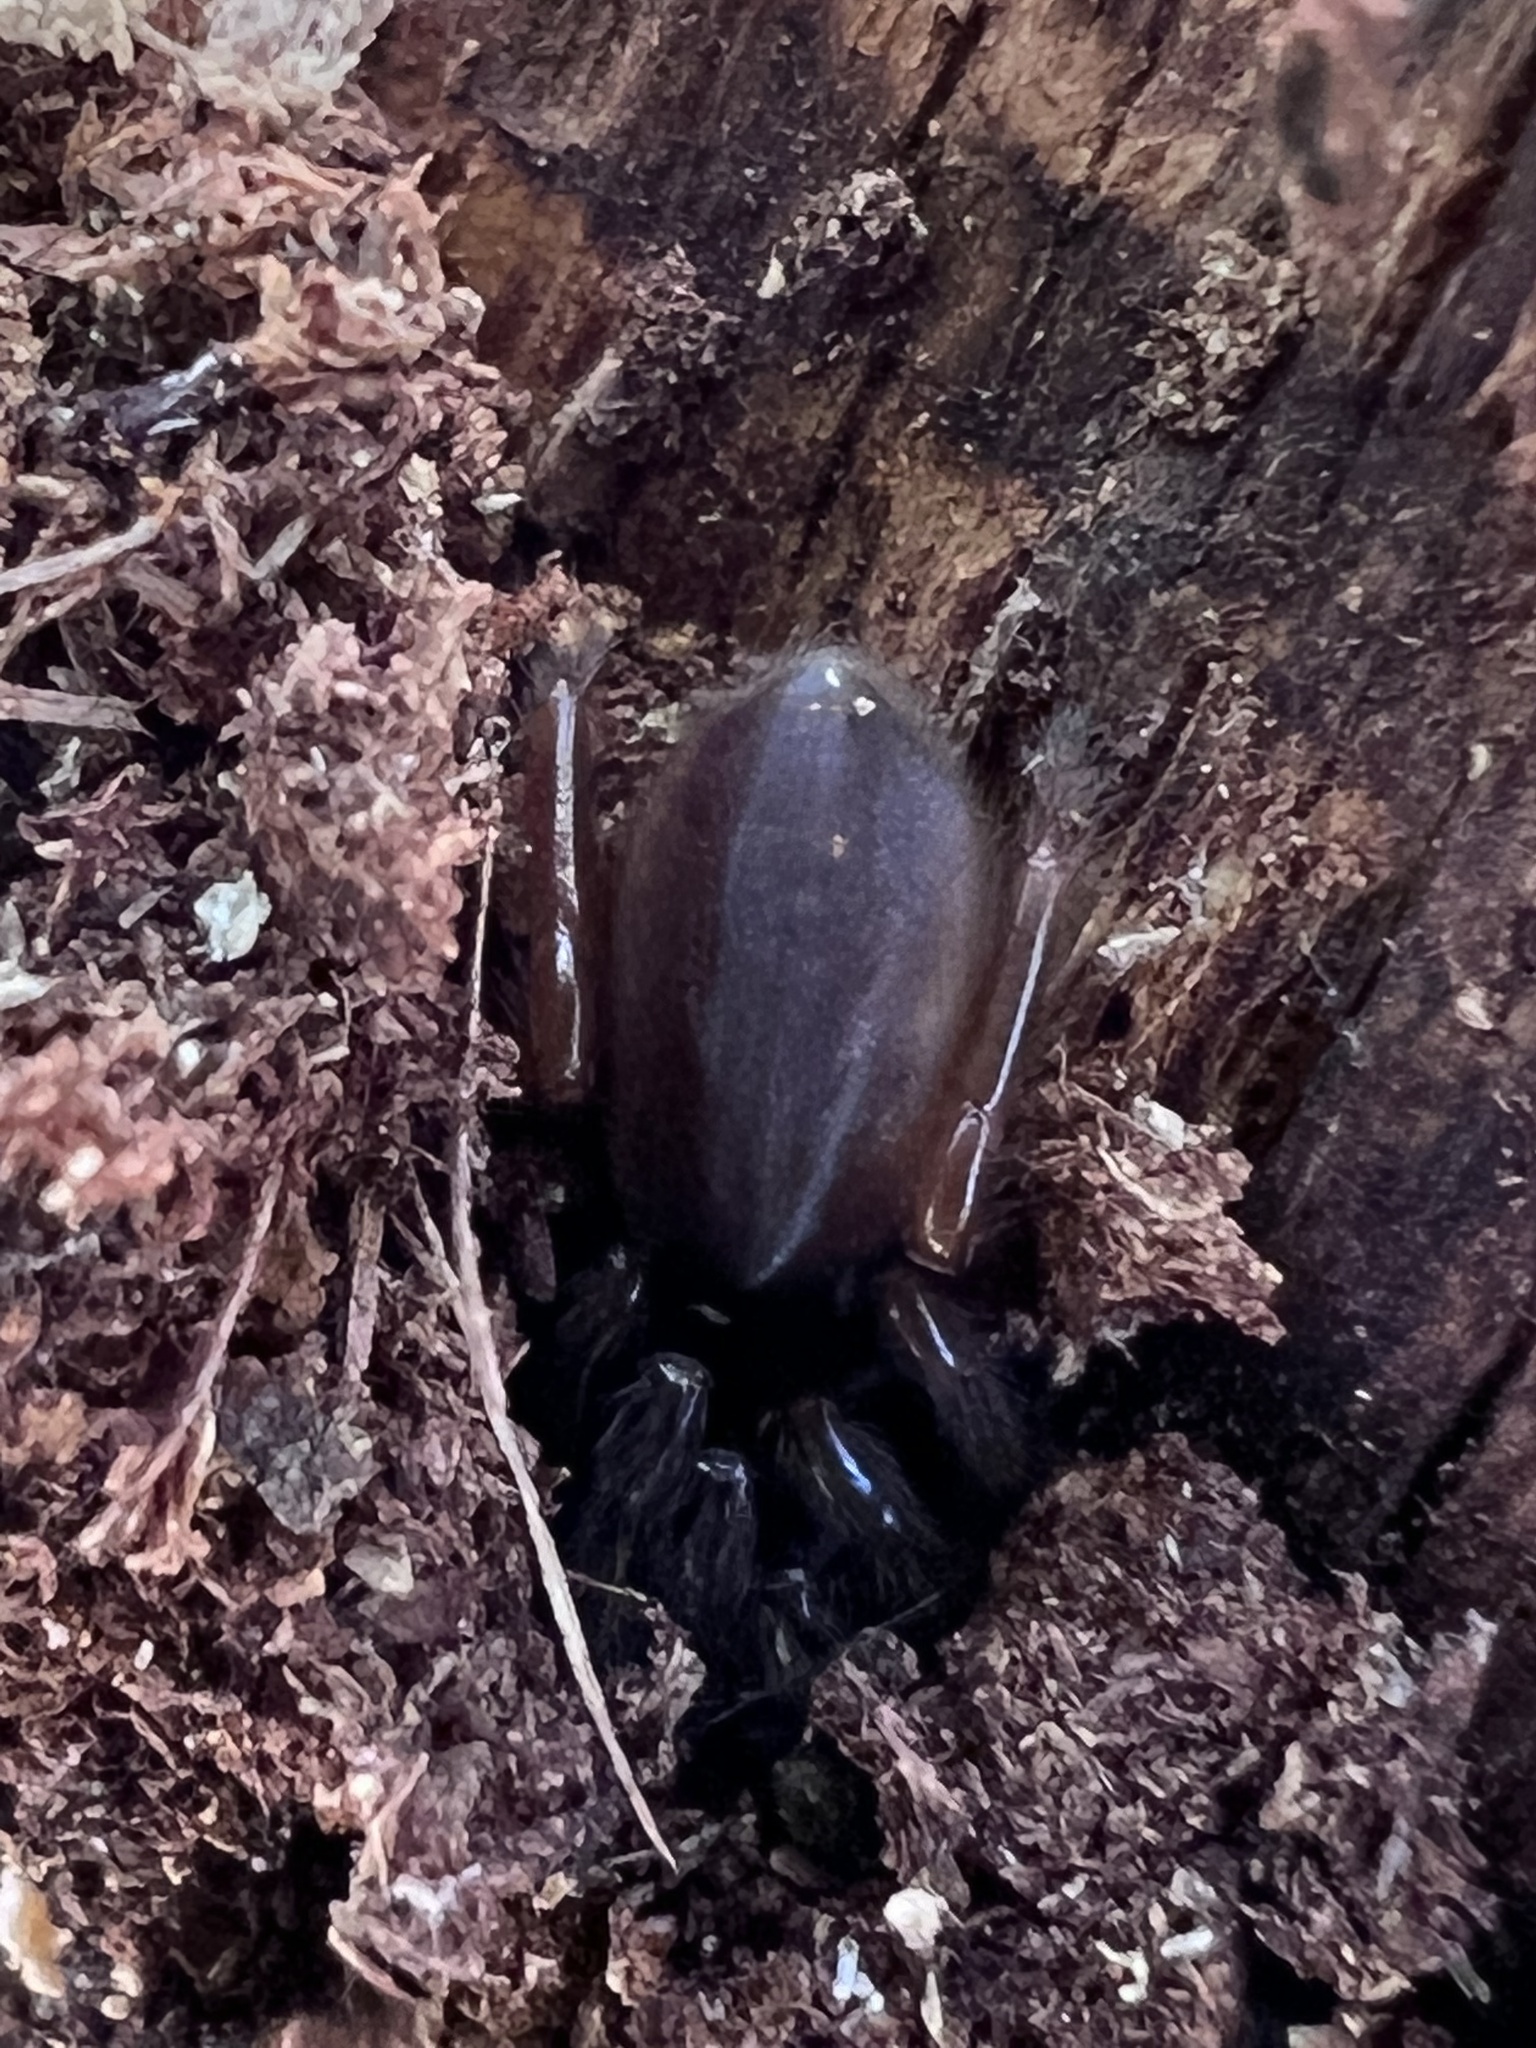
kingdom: Animalia
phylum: Arthropoda
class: Arachnida
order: Araneae
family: Segestriidae
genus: Ariadna
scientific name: Ariadna bicolor
